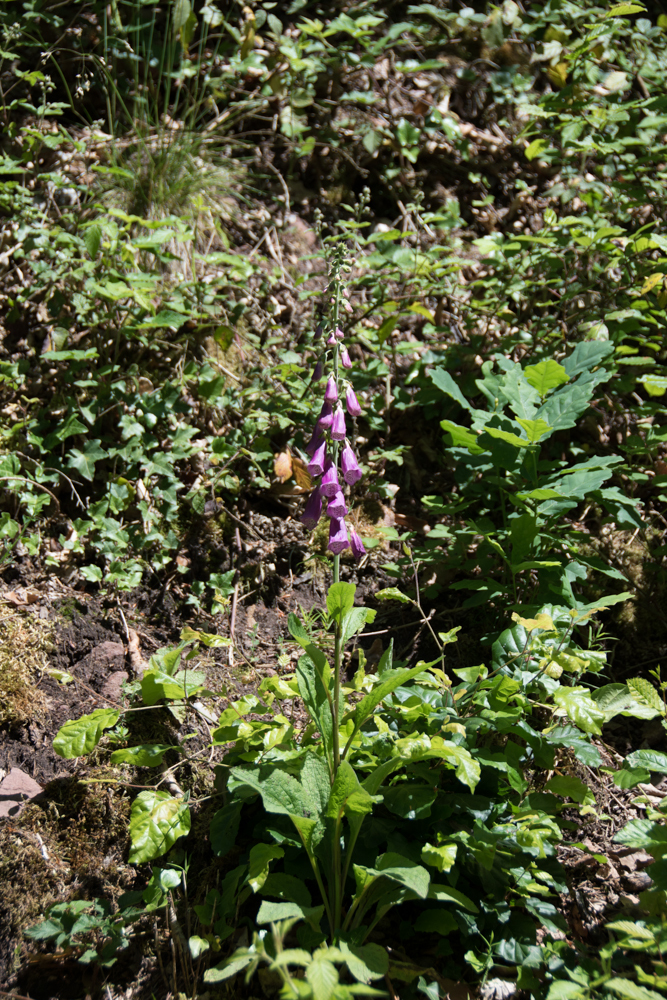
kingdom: Plantae
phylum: Tracheophyta
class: Magnoliopsida
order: Lamiales
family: Plantaginaceae
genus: Digitalis
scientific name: Digitalis purpurea
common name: Foxglove
